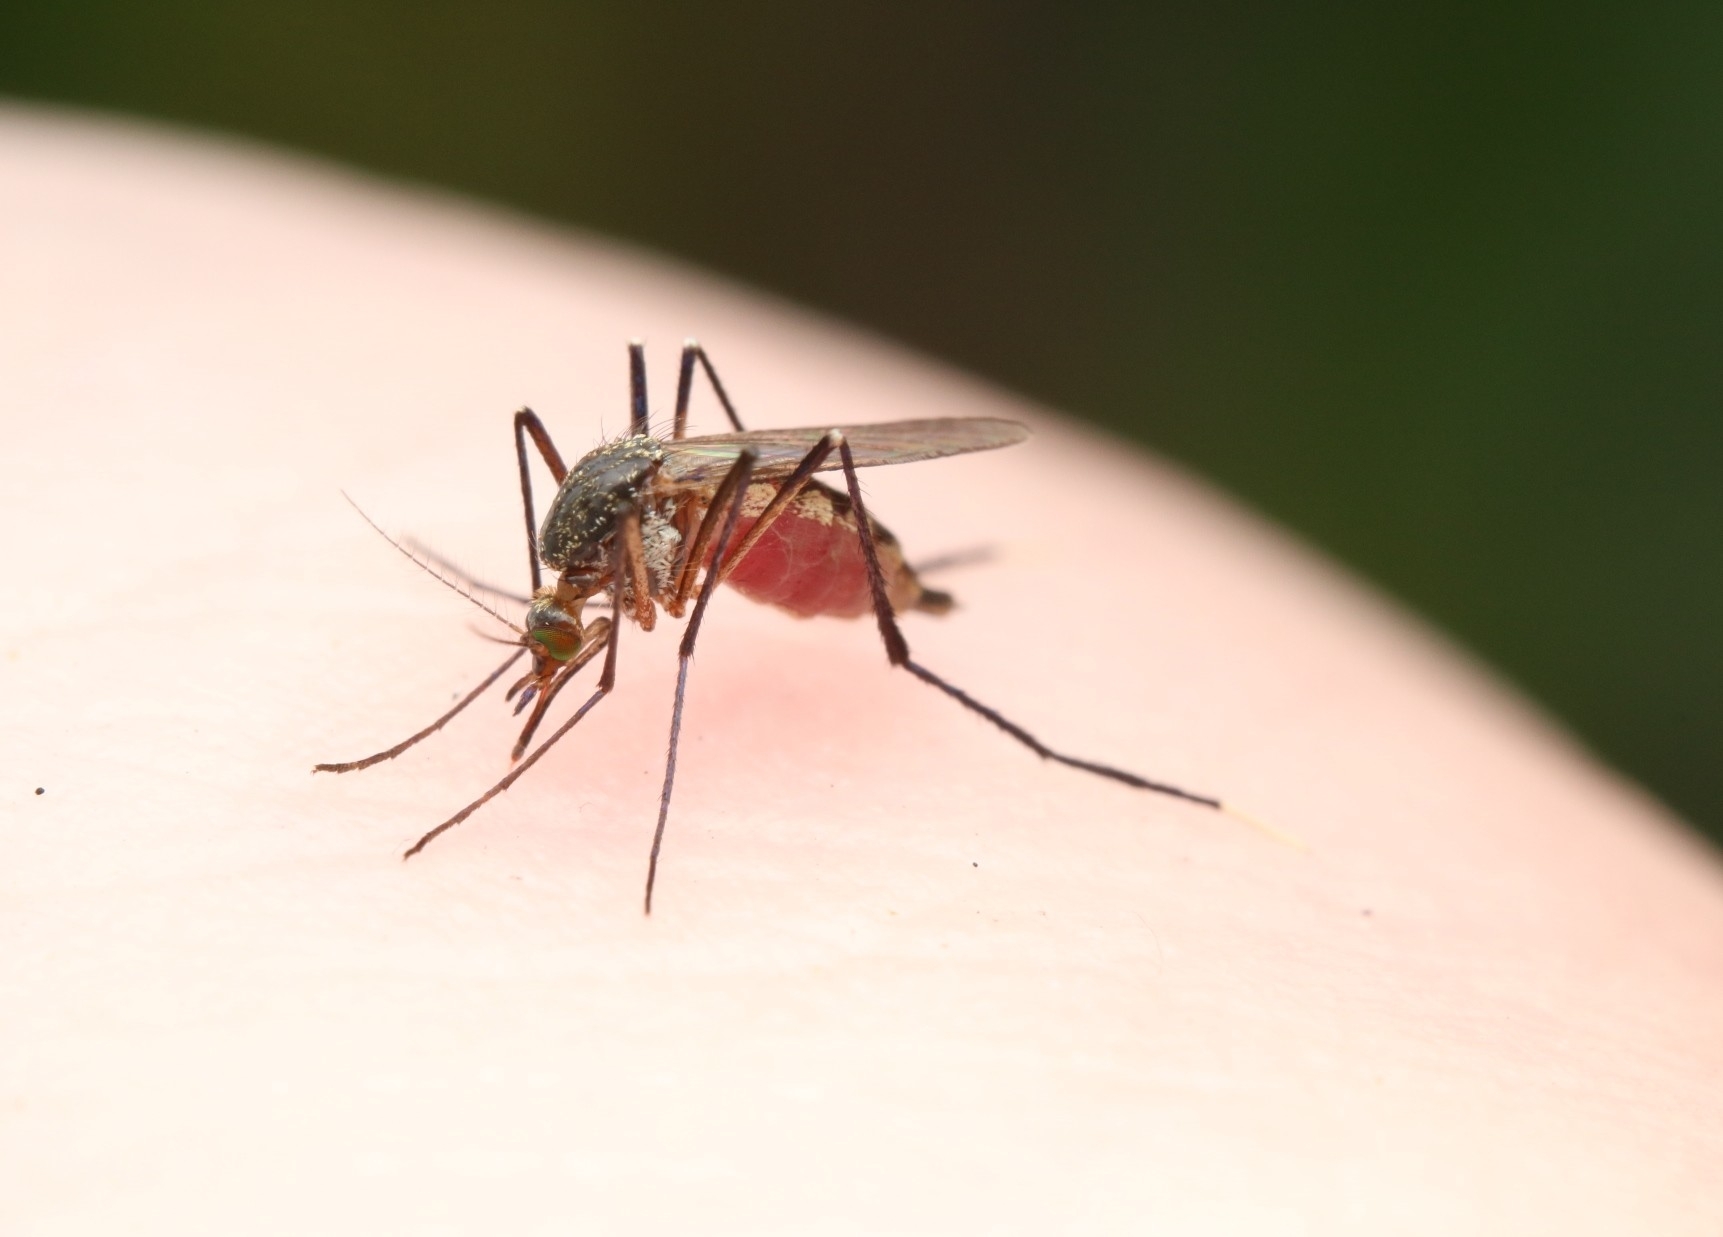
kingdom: Animalia
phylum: Arthropoda
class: Insecta
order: Diptera
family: Culicidae
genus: Psorophora
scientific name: Psorophora ferox
